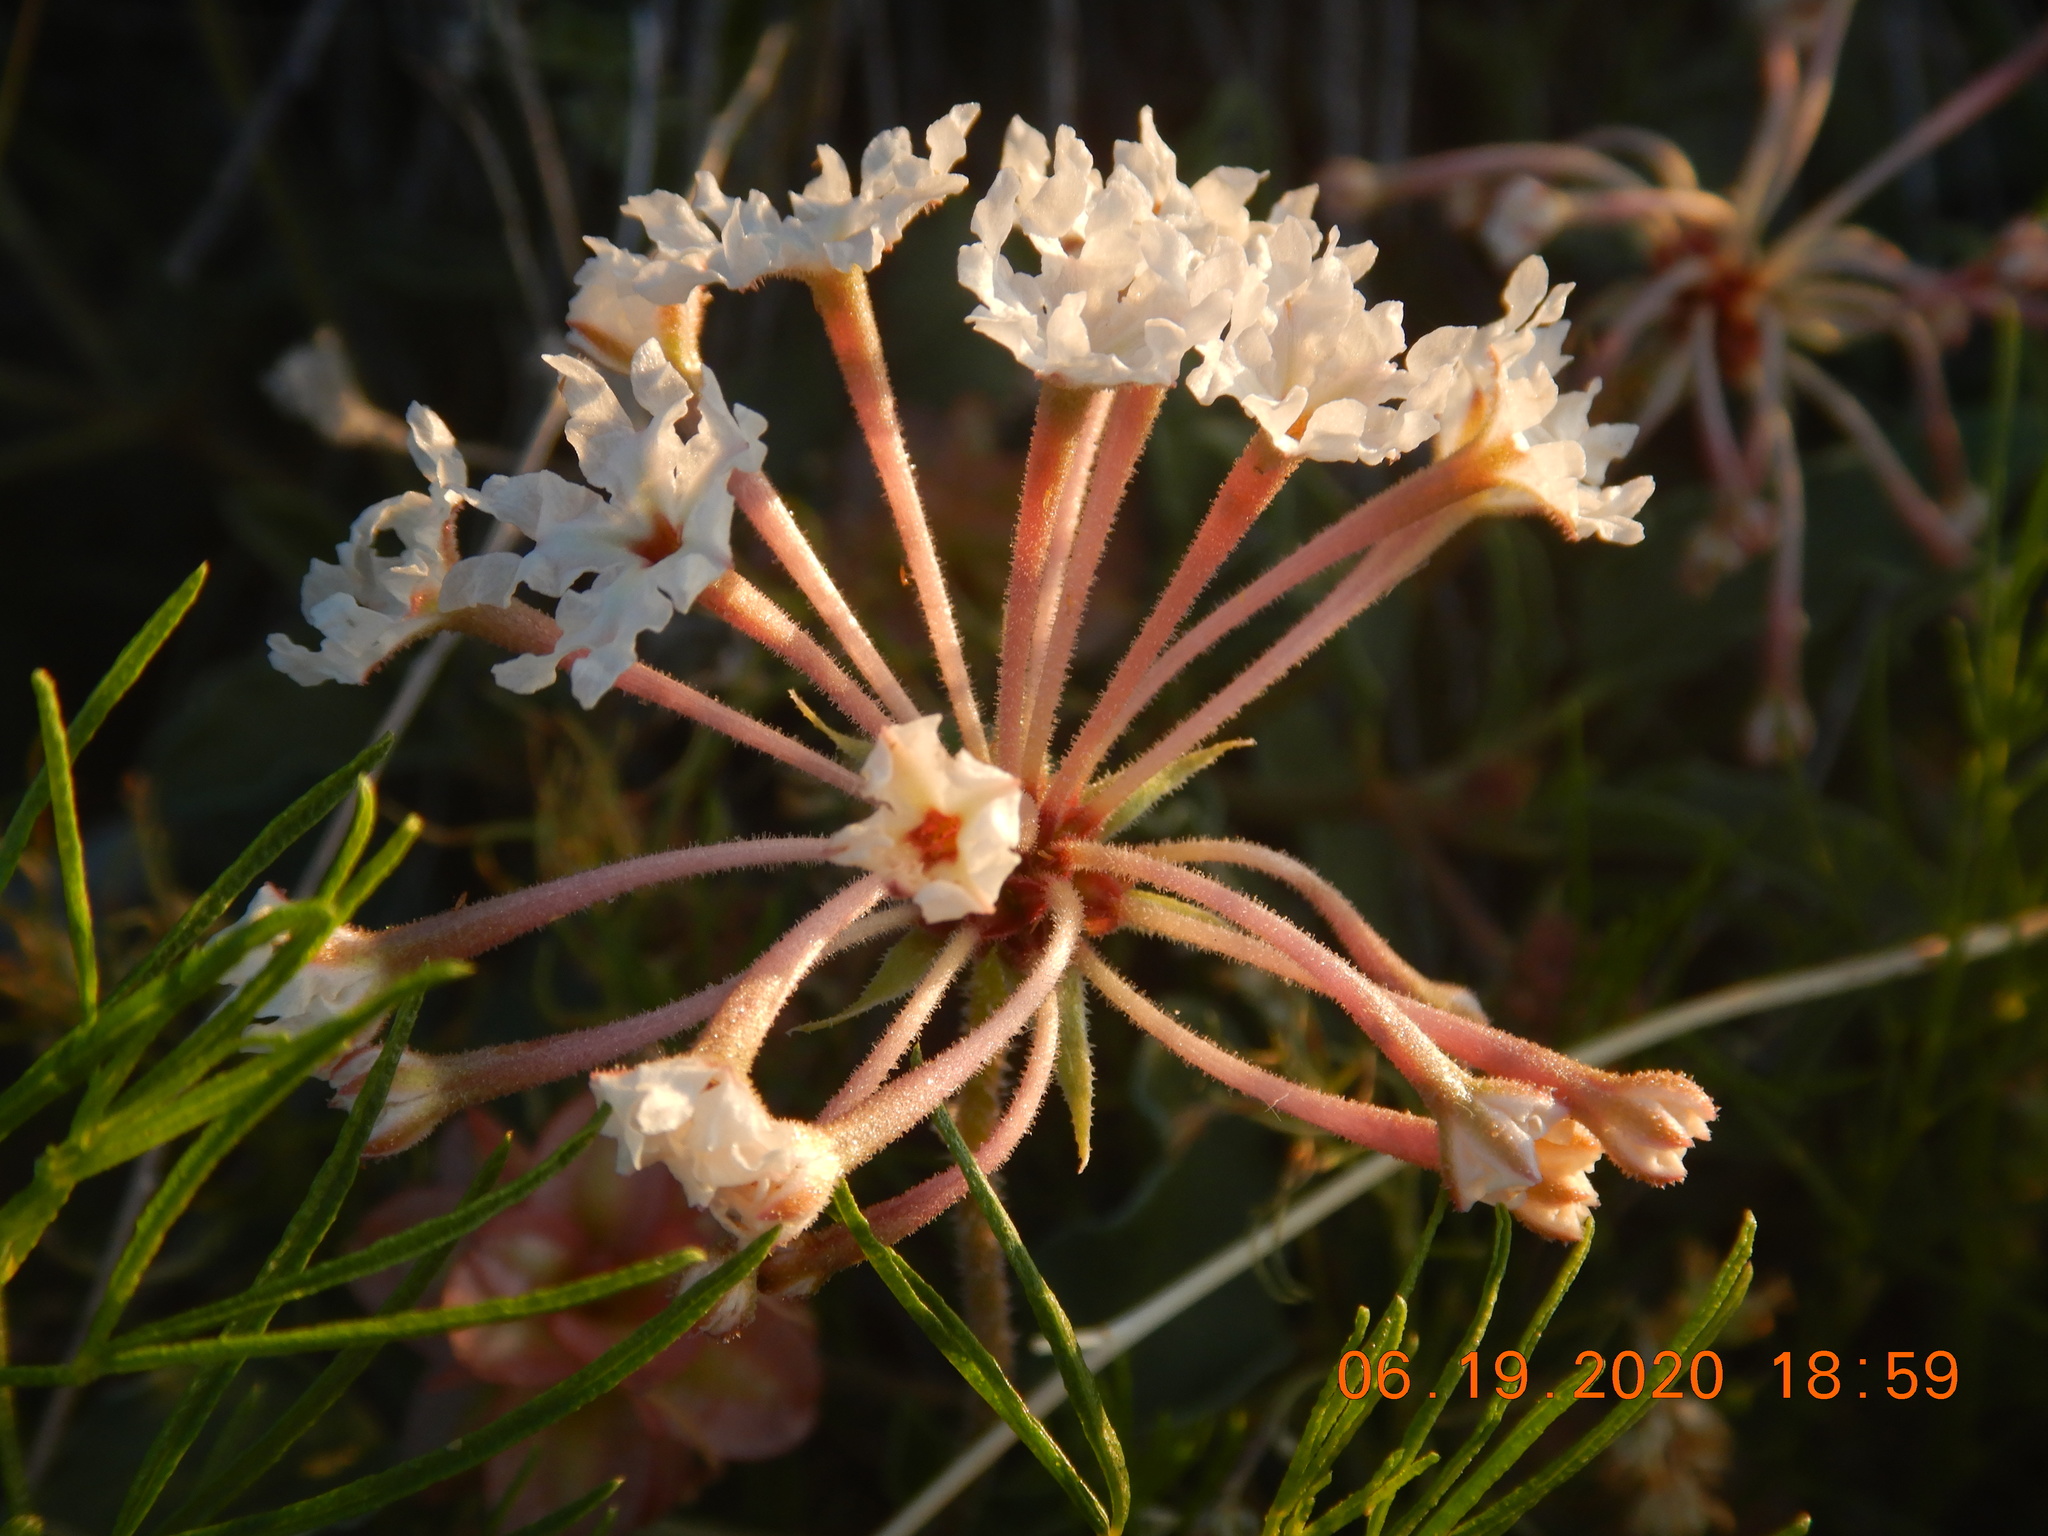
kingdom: Plantae
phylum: Tracheophyta
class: Magnoliopsida
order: Caryophyllales
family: Nyctaginaceae
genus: Tripterocalyx
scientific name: Tripterocalyx carneus
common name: Winged sandpuffs
